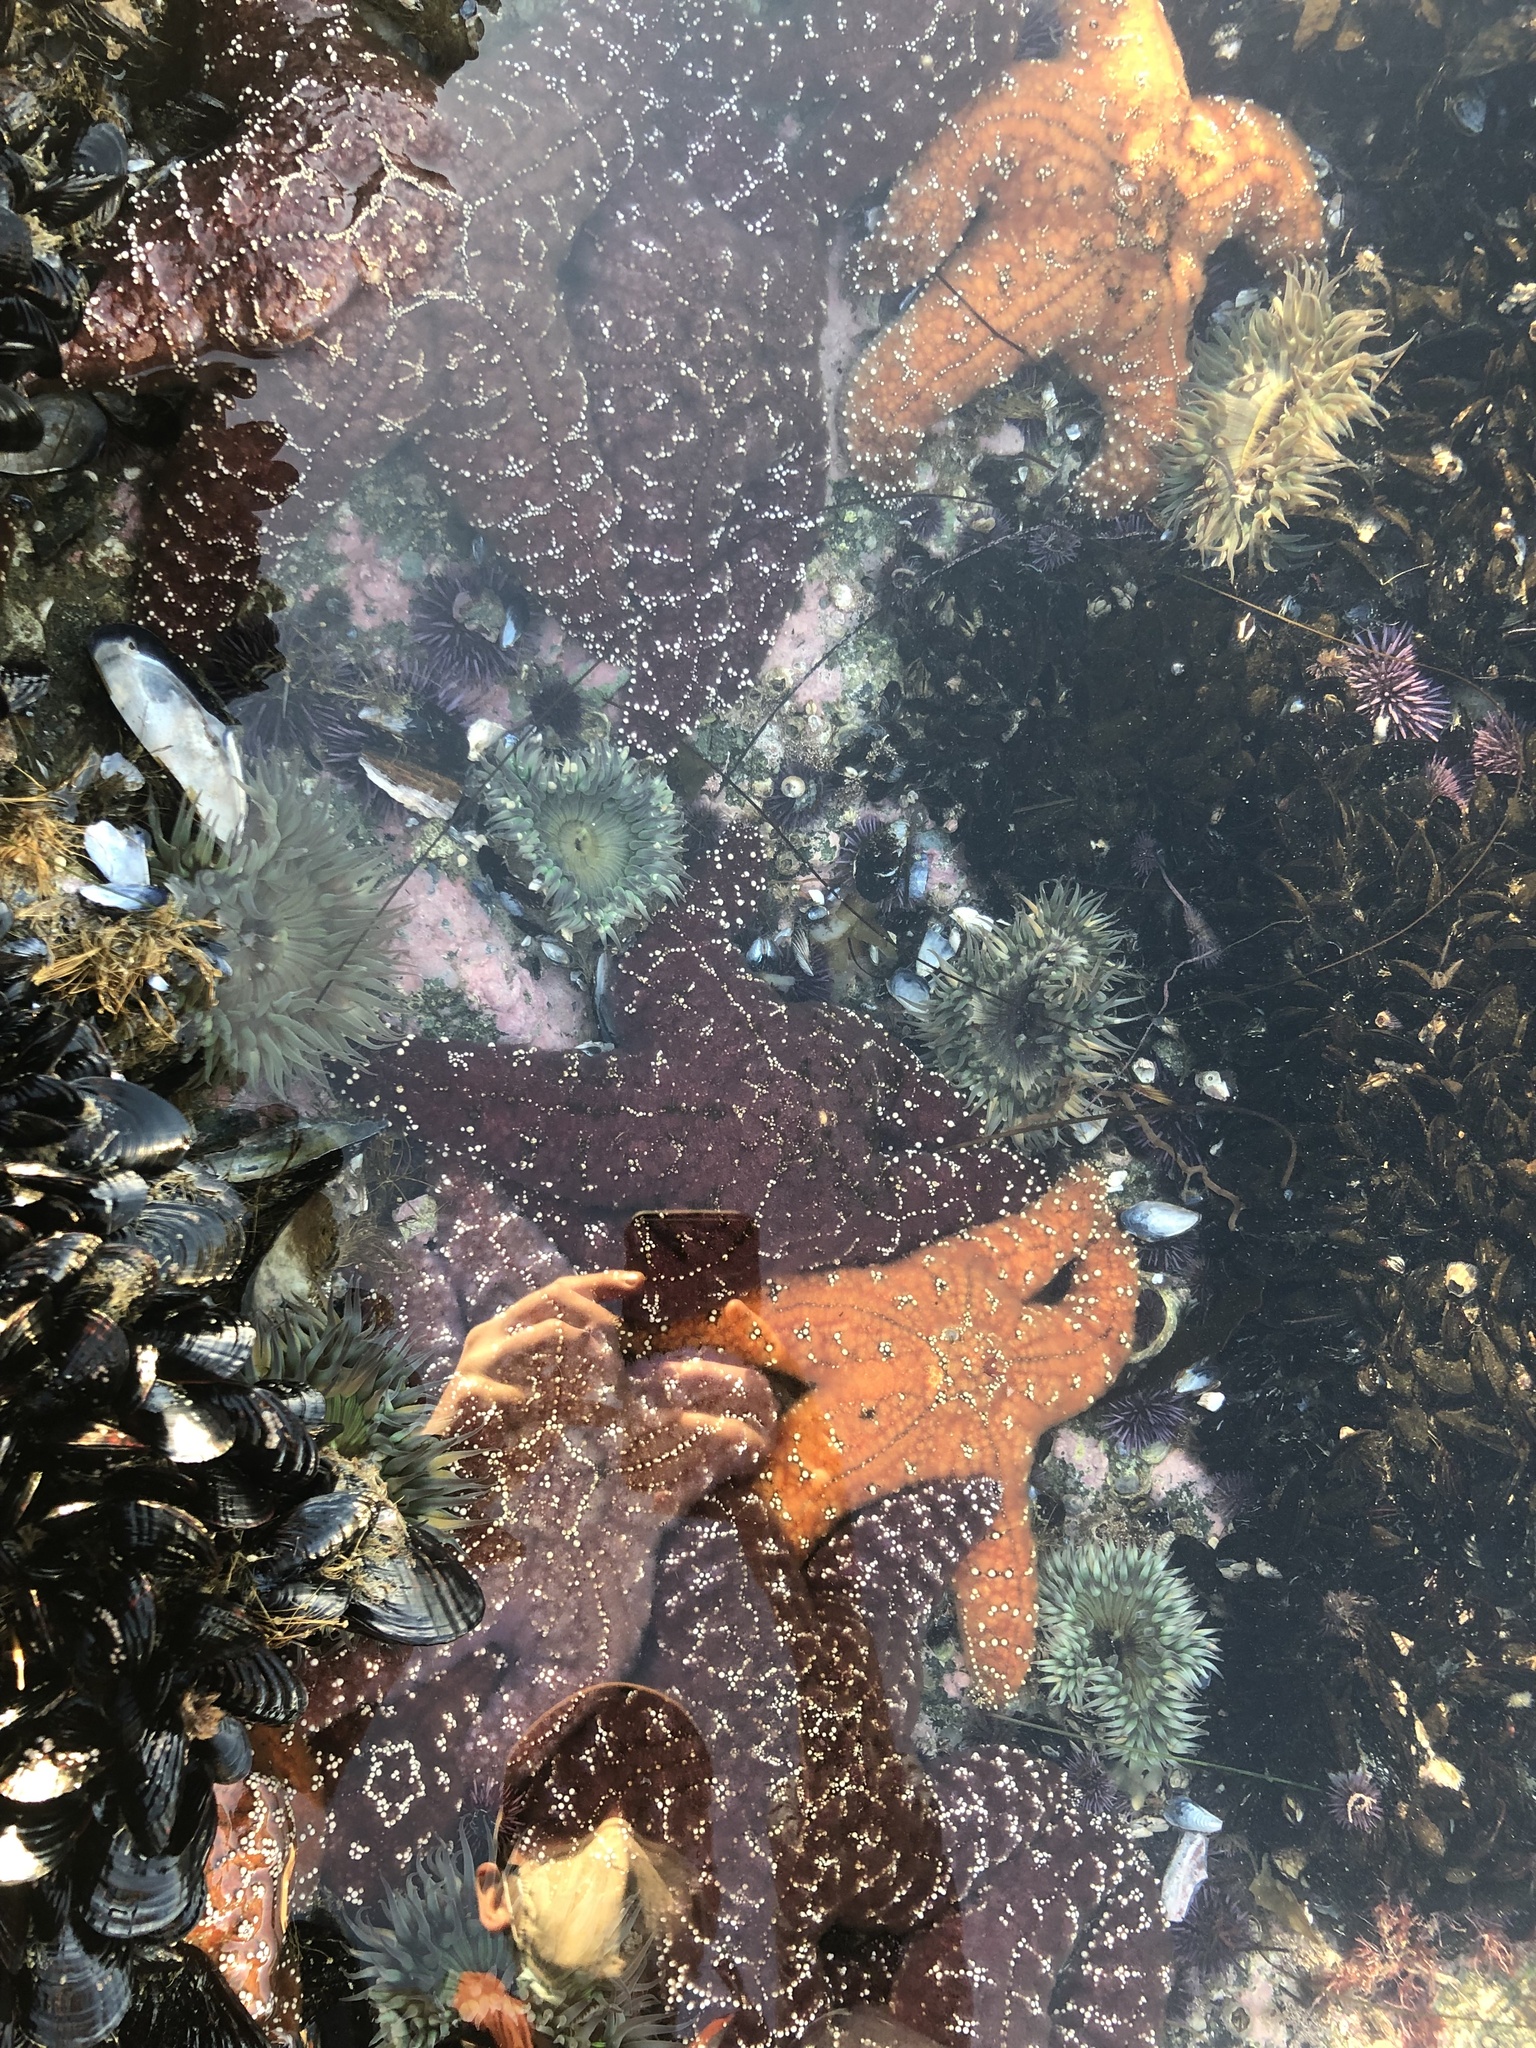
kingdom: Animalia
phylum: Echinodermata
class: Asteroidea
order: Forcipulatida
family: Asteriidae
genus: Pisaster
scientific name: Pisaster ochraceus
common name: Ochre stars
